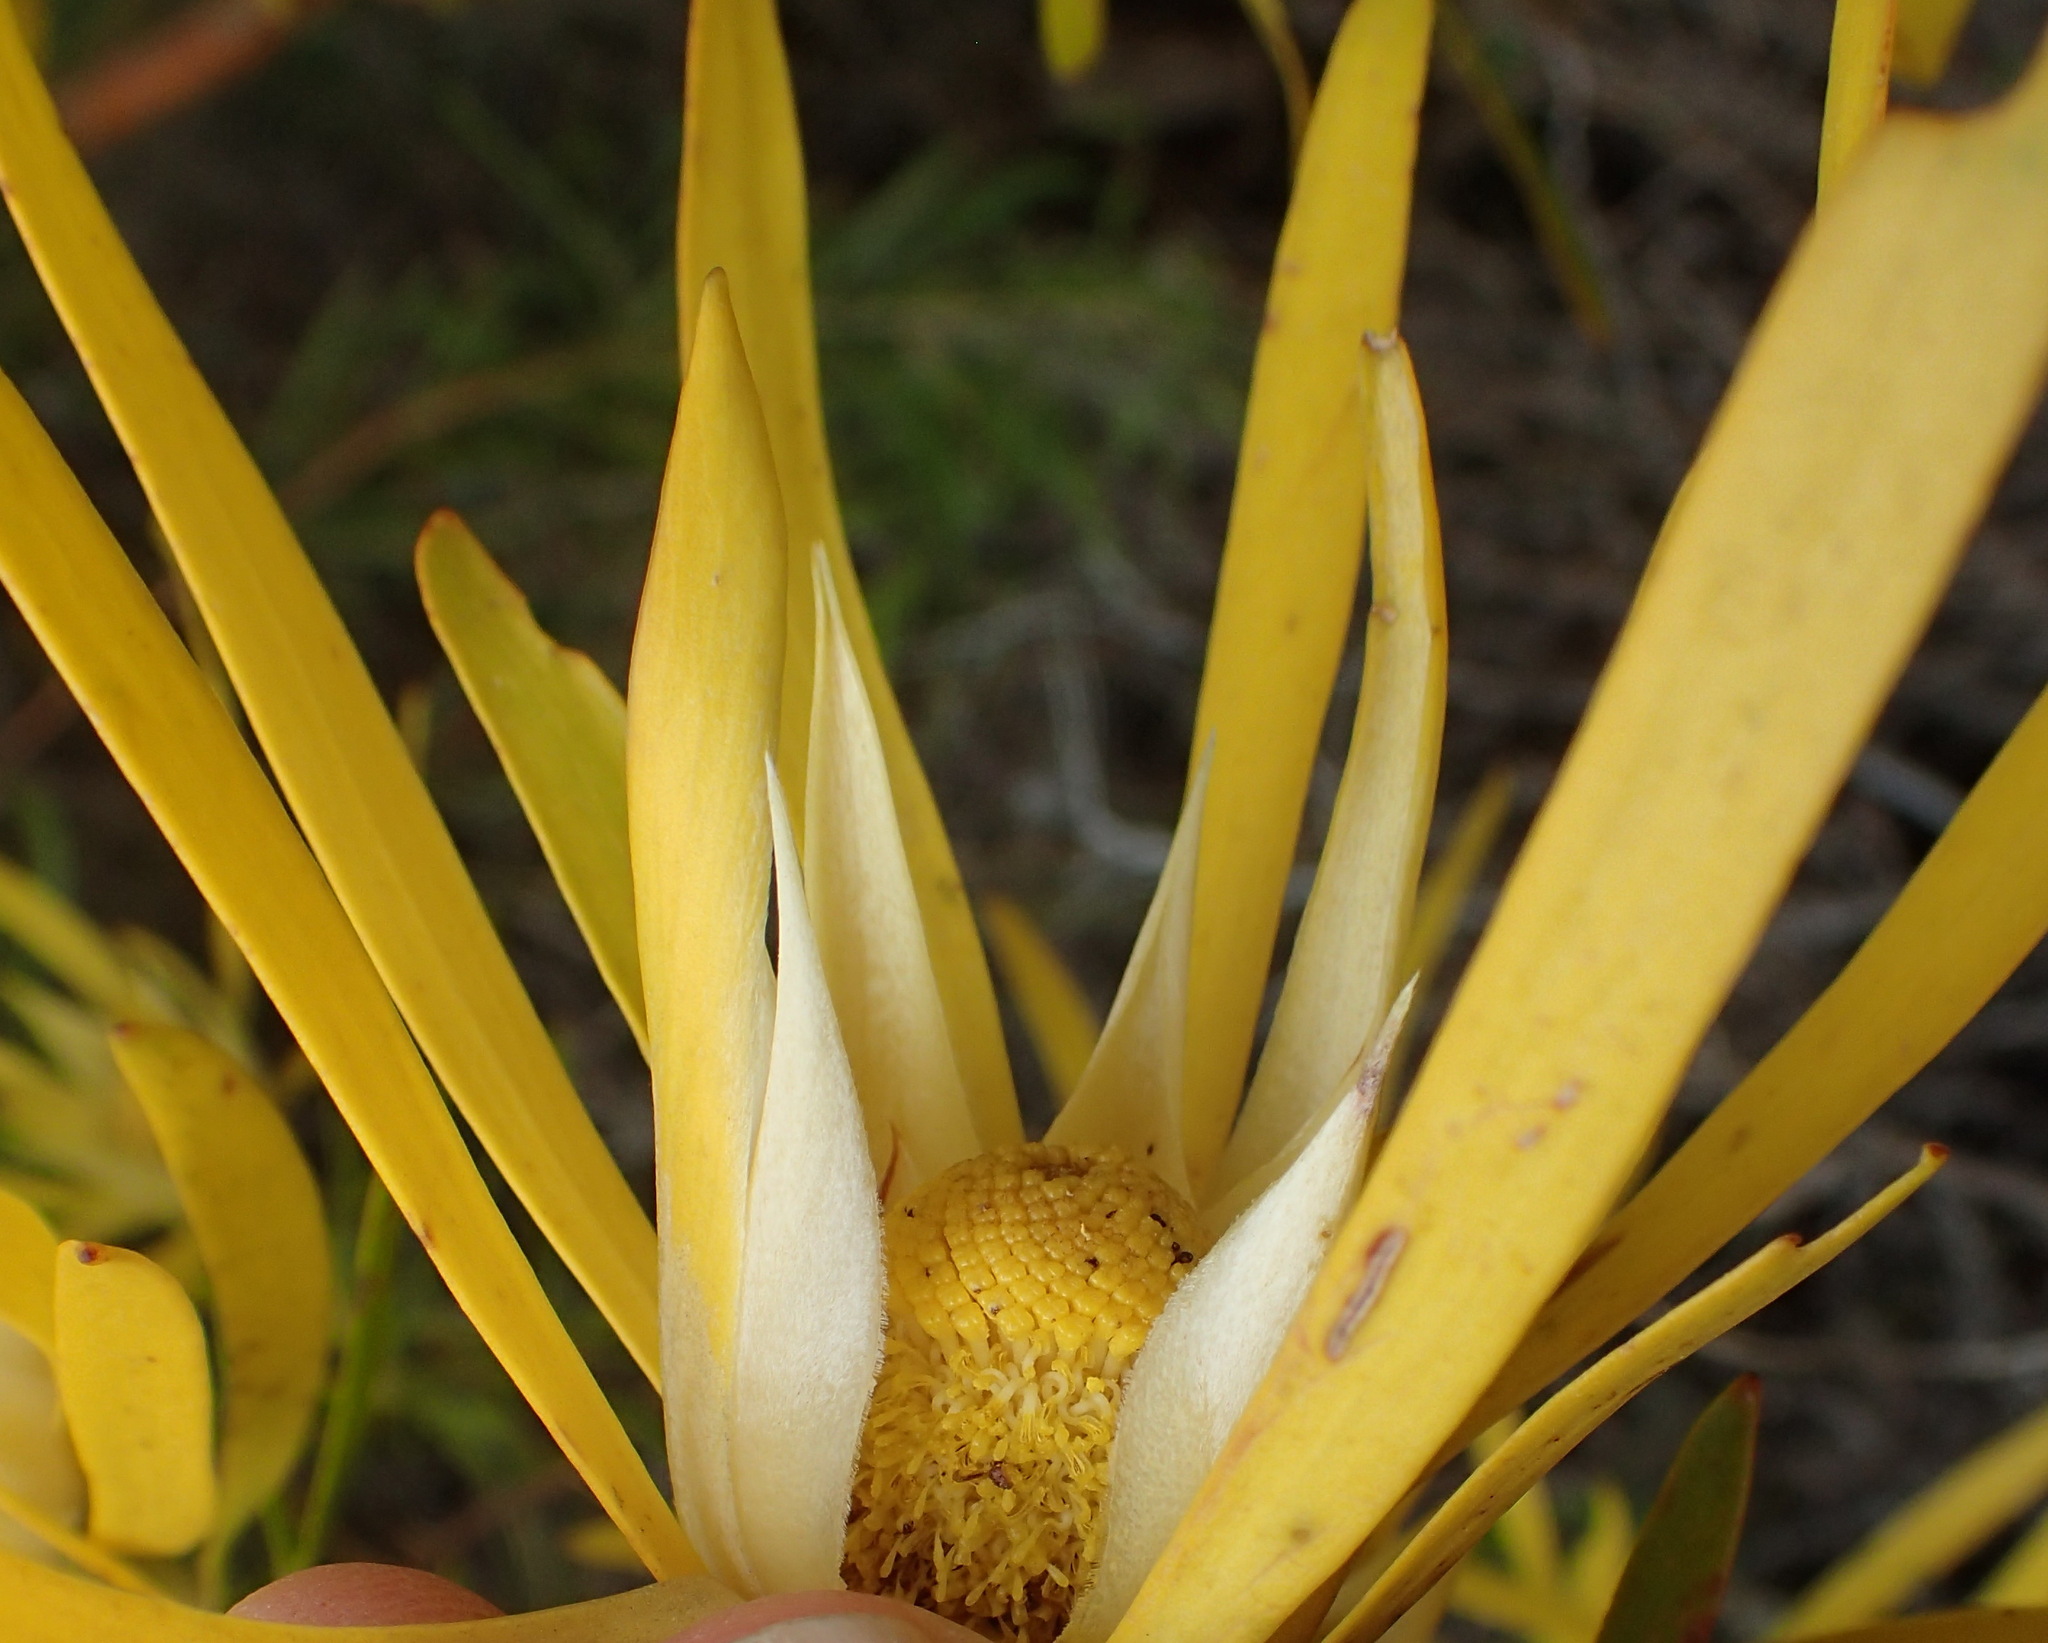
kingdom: Plantae
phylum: Tracheophyta
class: Magnoliopsida
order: Proteales
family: Proteaceae
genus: Leucadendron
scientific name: Leucadendron eucalyptifolium
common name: Gum-leaved conebush
